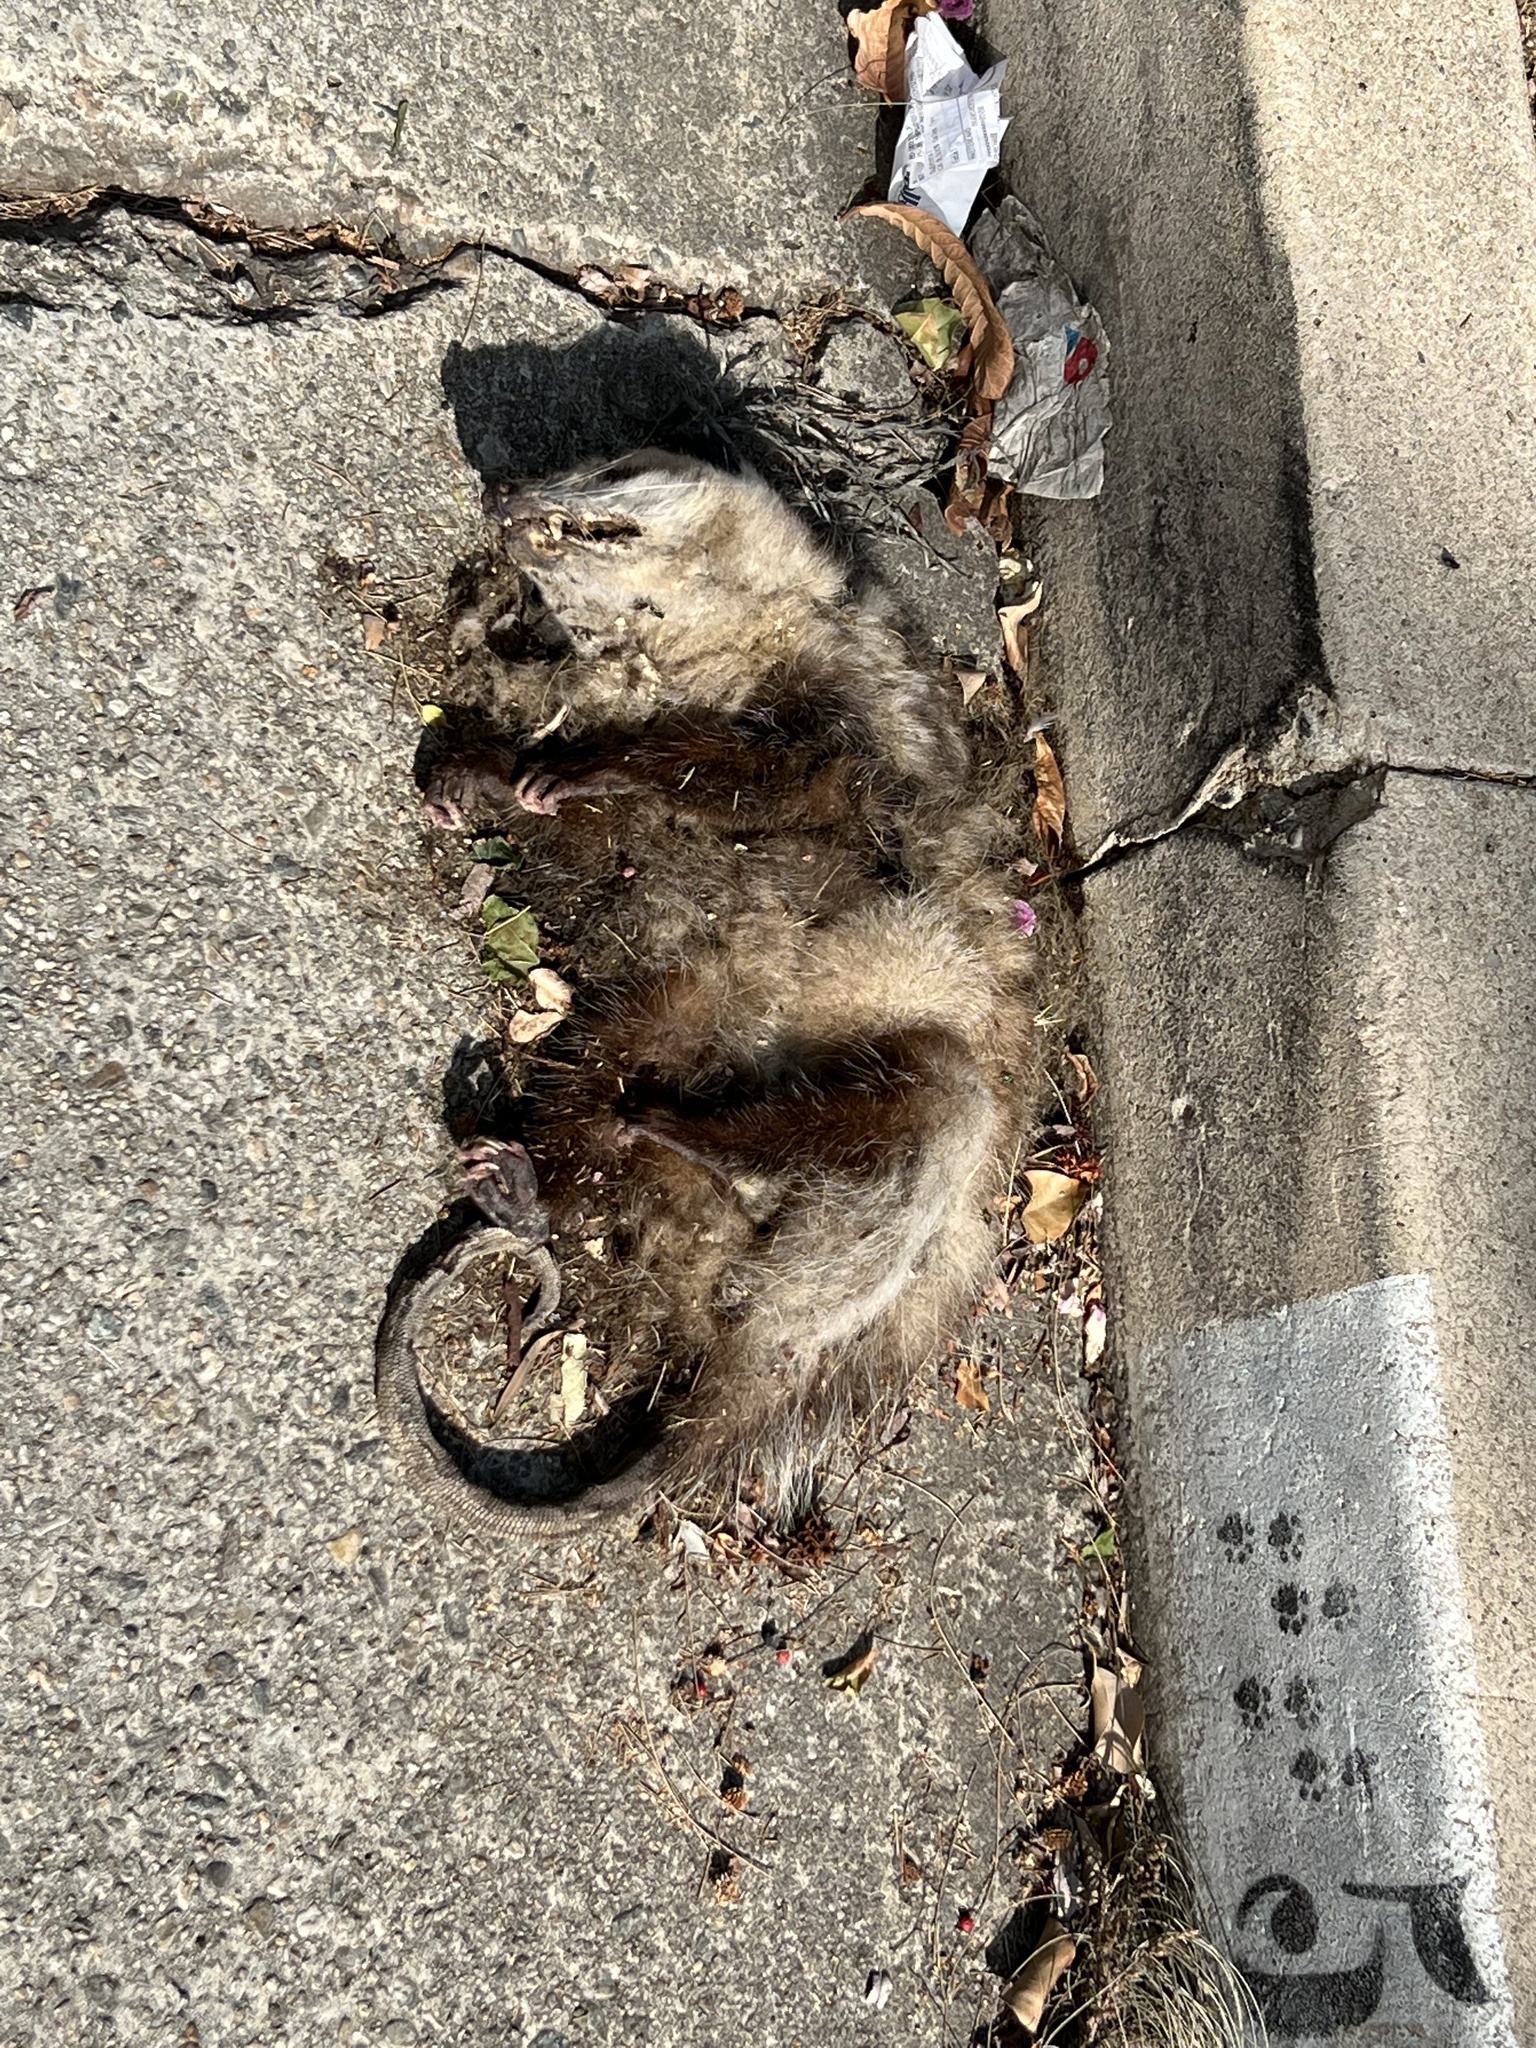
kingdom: Animalia
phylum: Chordata
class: Mammalia
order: Didelphimorphia
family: Didelphidae
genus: Didelphis
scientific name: Didelphis virginiana
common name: Virginia opossum
